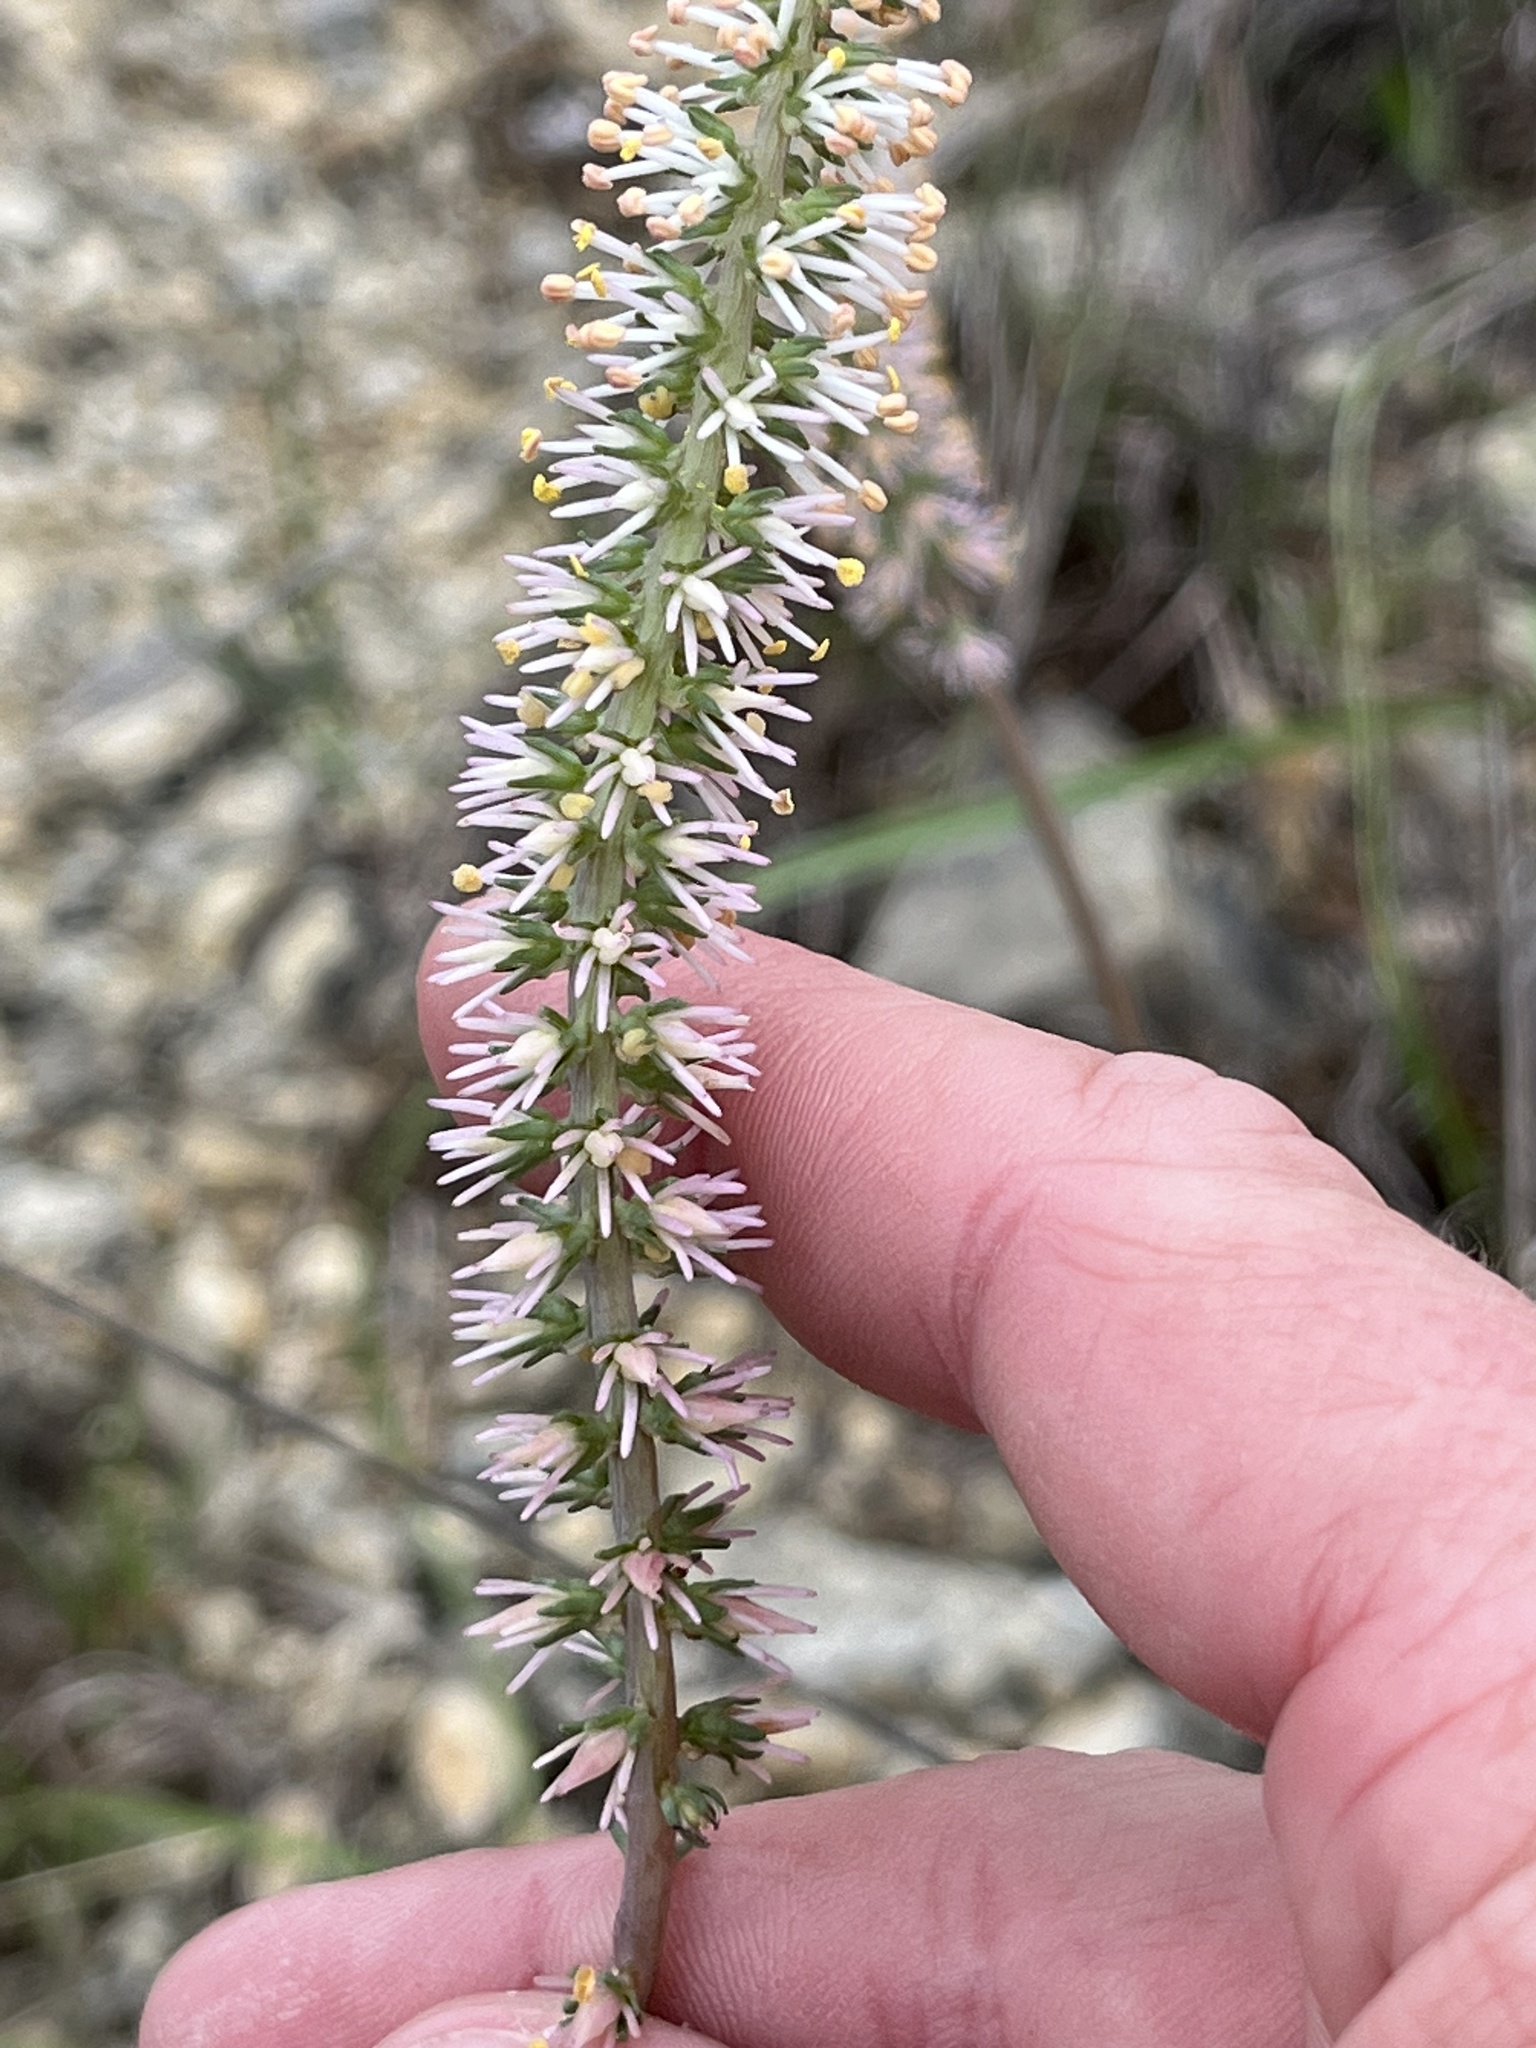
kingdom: Plantae
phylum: Tracheophyta
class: Liliopsida
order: Liliales
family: Melanthiaceae
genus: Schoenocaulon
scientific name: Schoenocaulon texanum
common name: Texas feather-shank
